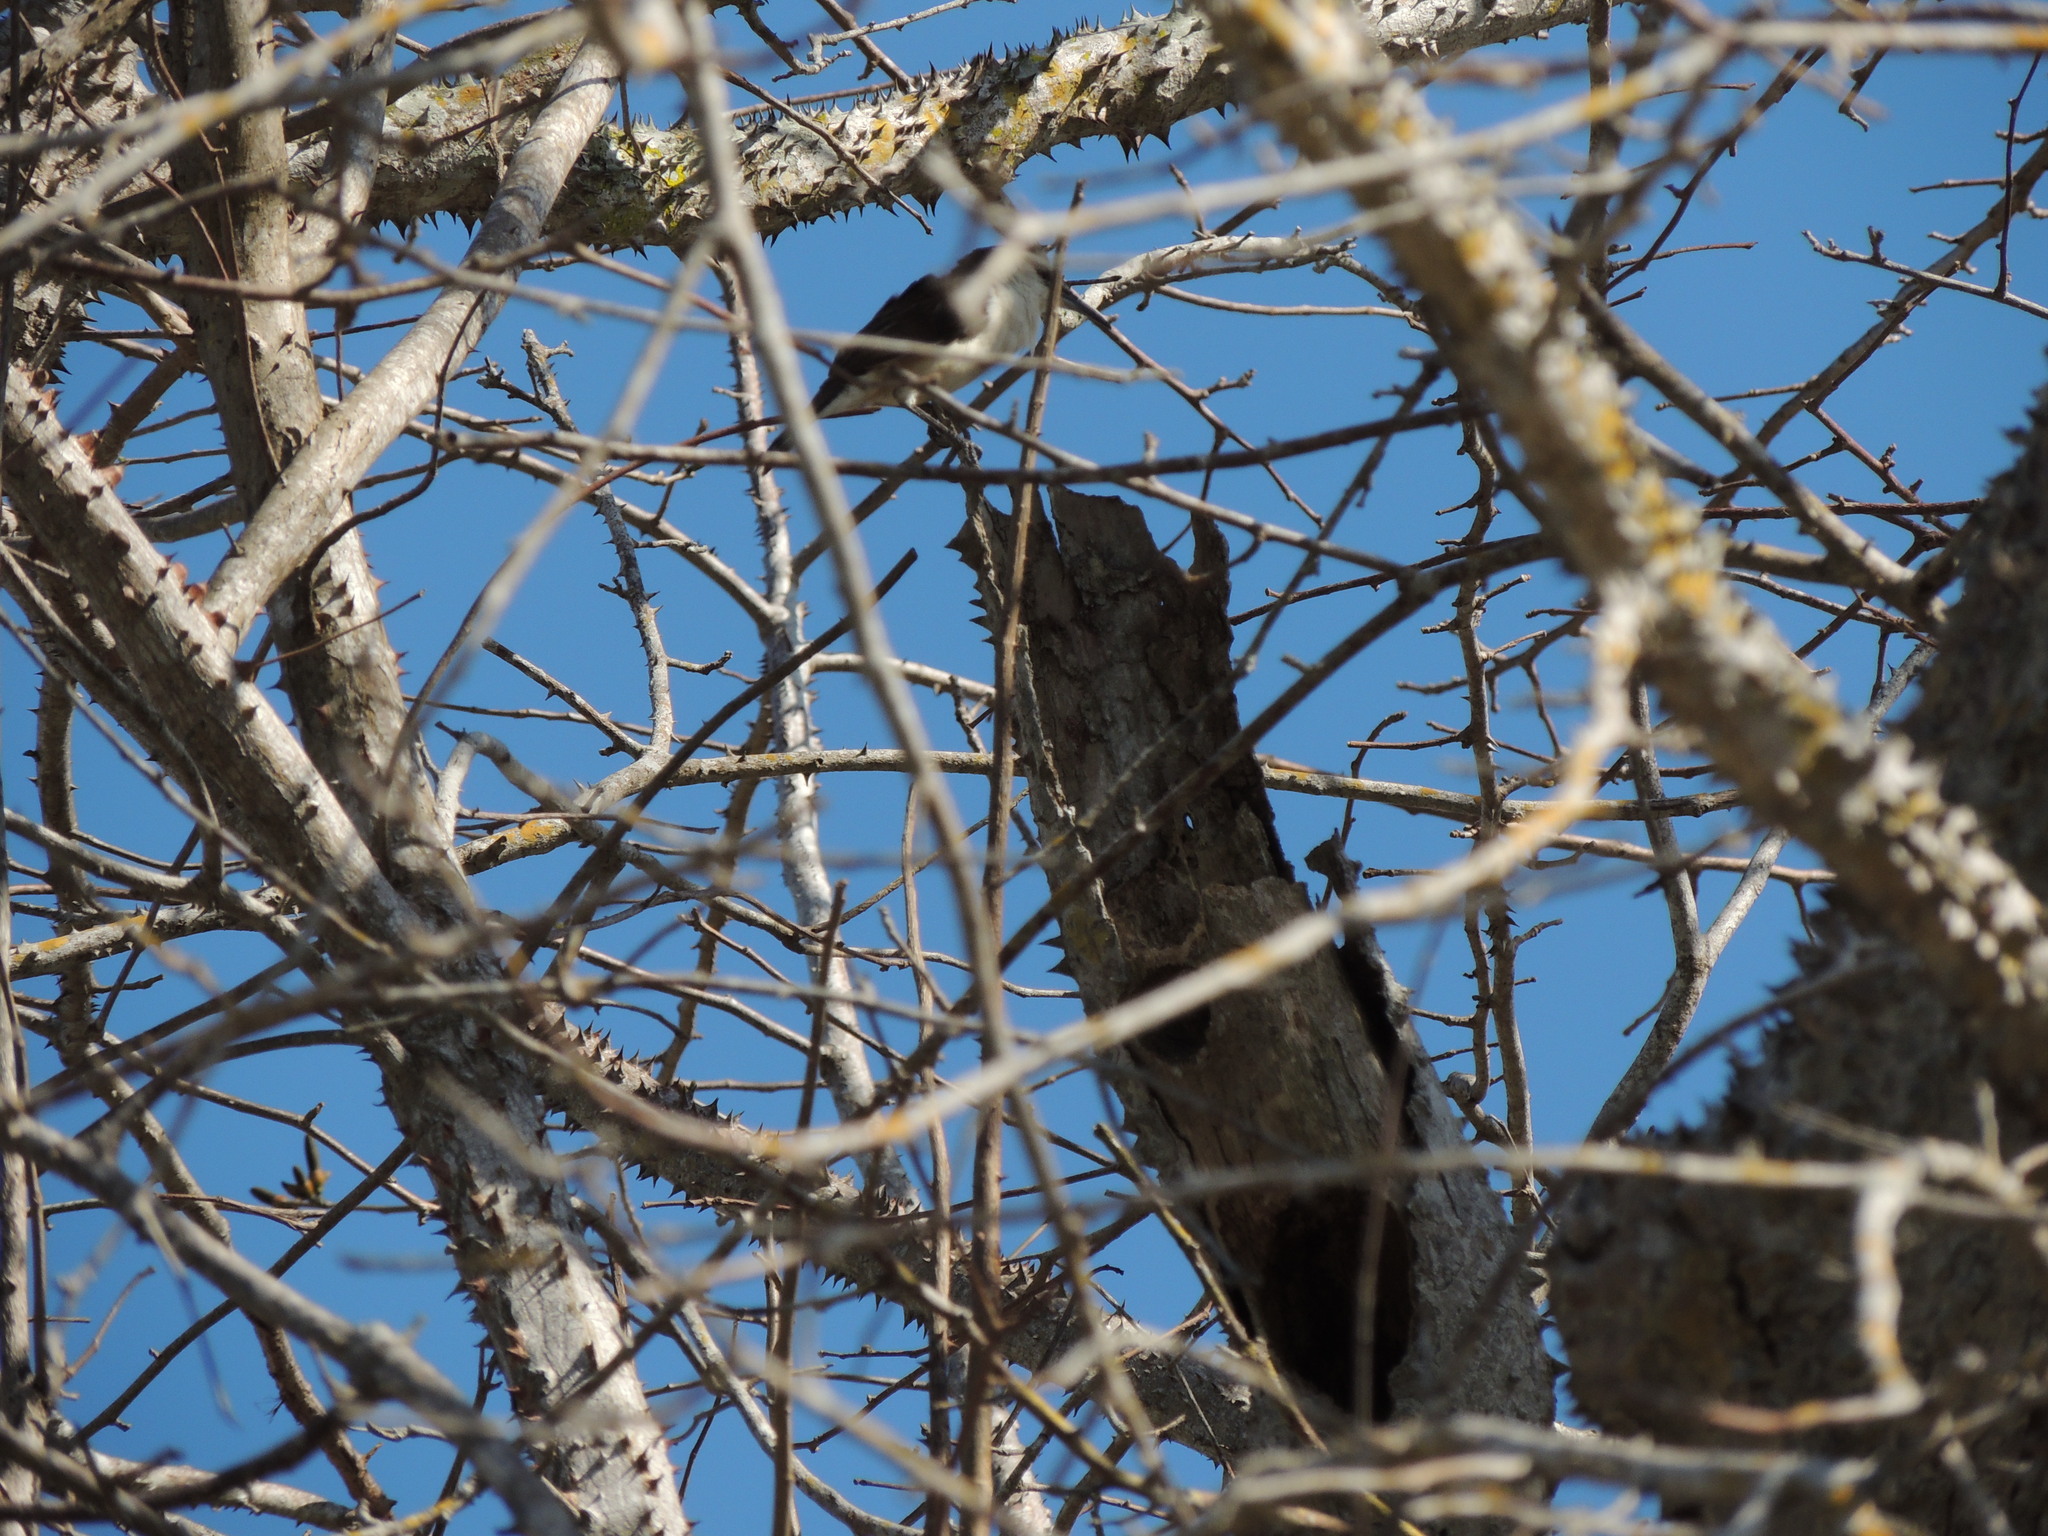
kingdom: Animalia
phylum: Chordata
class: Aves
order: Passeriformes
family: Troglodytidae
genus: Campylorhynchus
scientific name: Campylorhynchus griseus
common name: Bicolored wren
